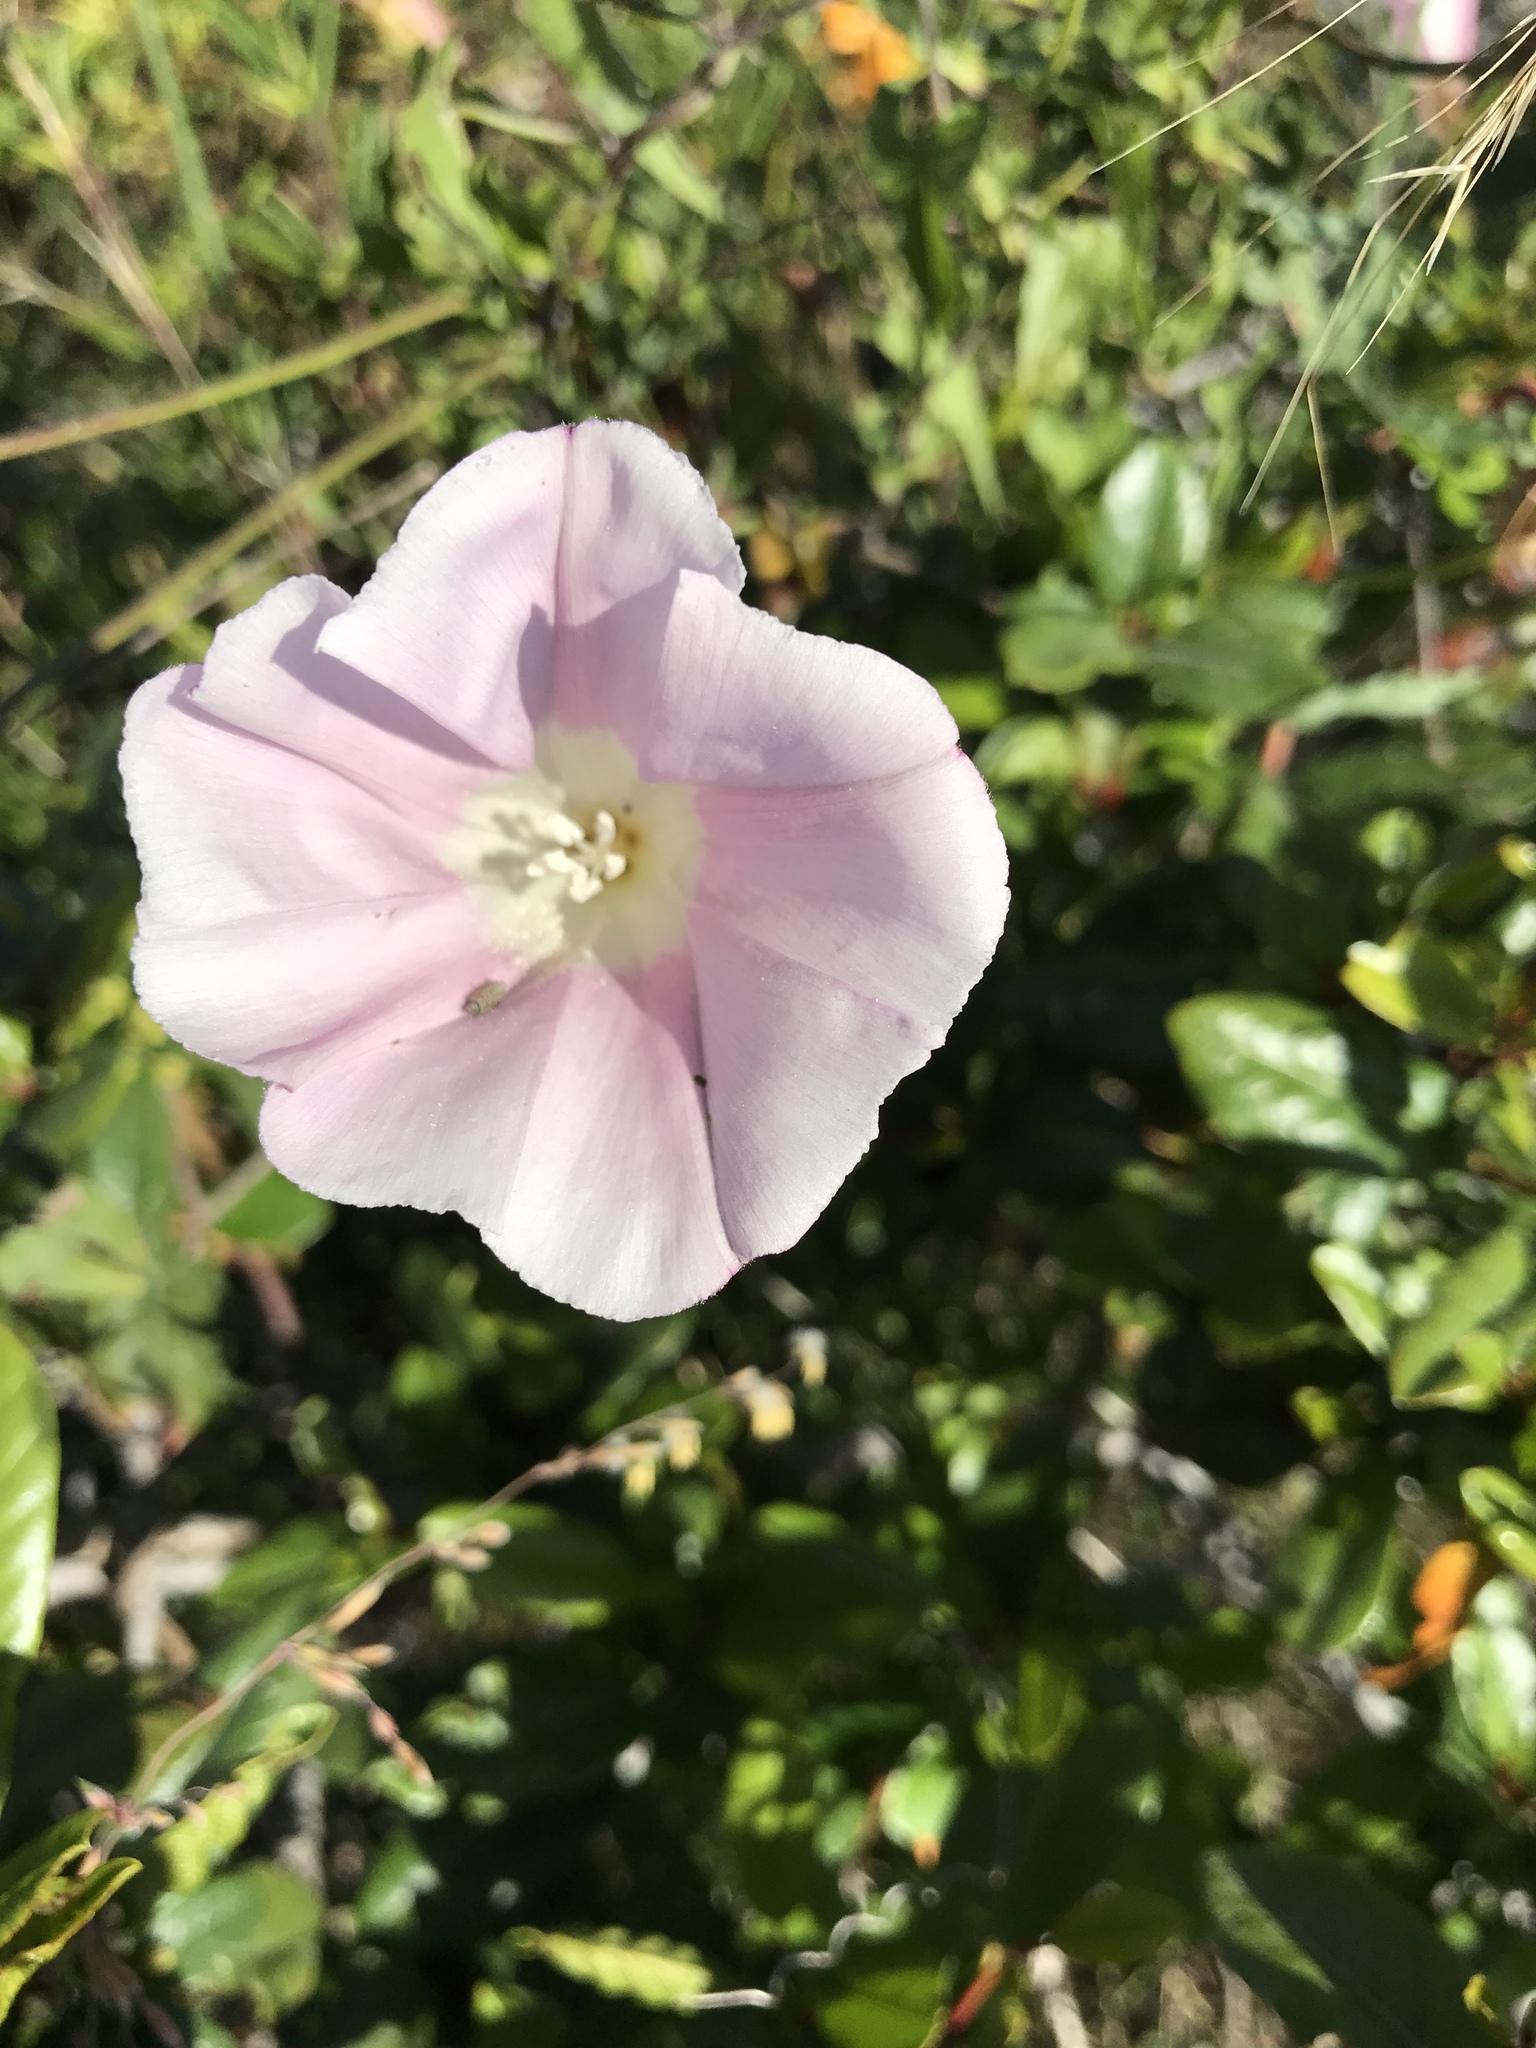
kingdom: Plantae
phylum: Tracheophyta
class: Magnoliopsida
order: Solanales
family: Convolvulaceae
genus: Calystegia
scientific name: Calystegia macrostegia
